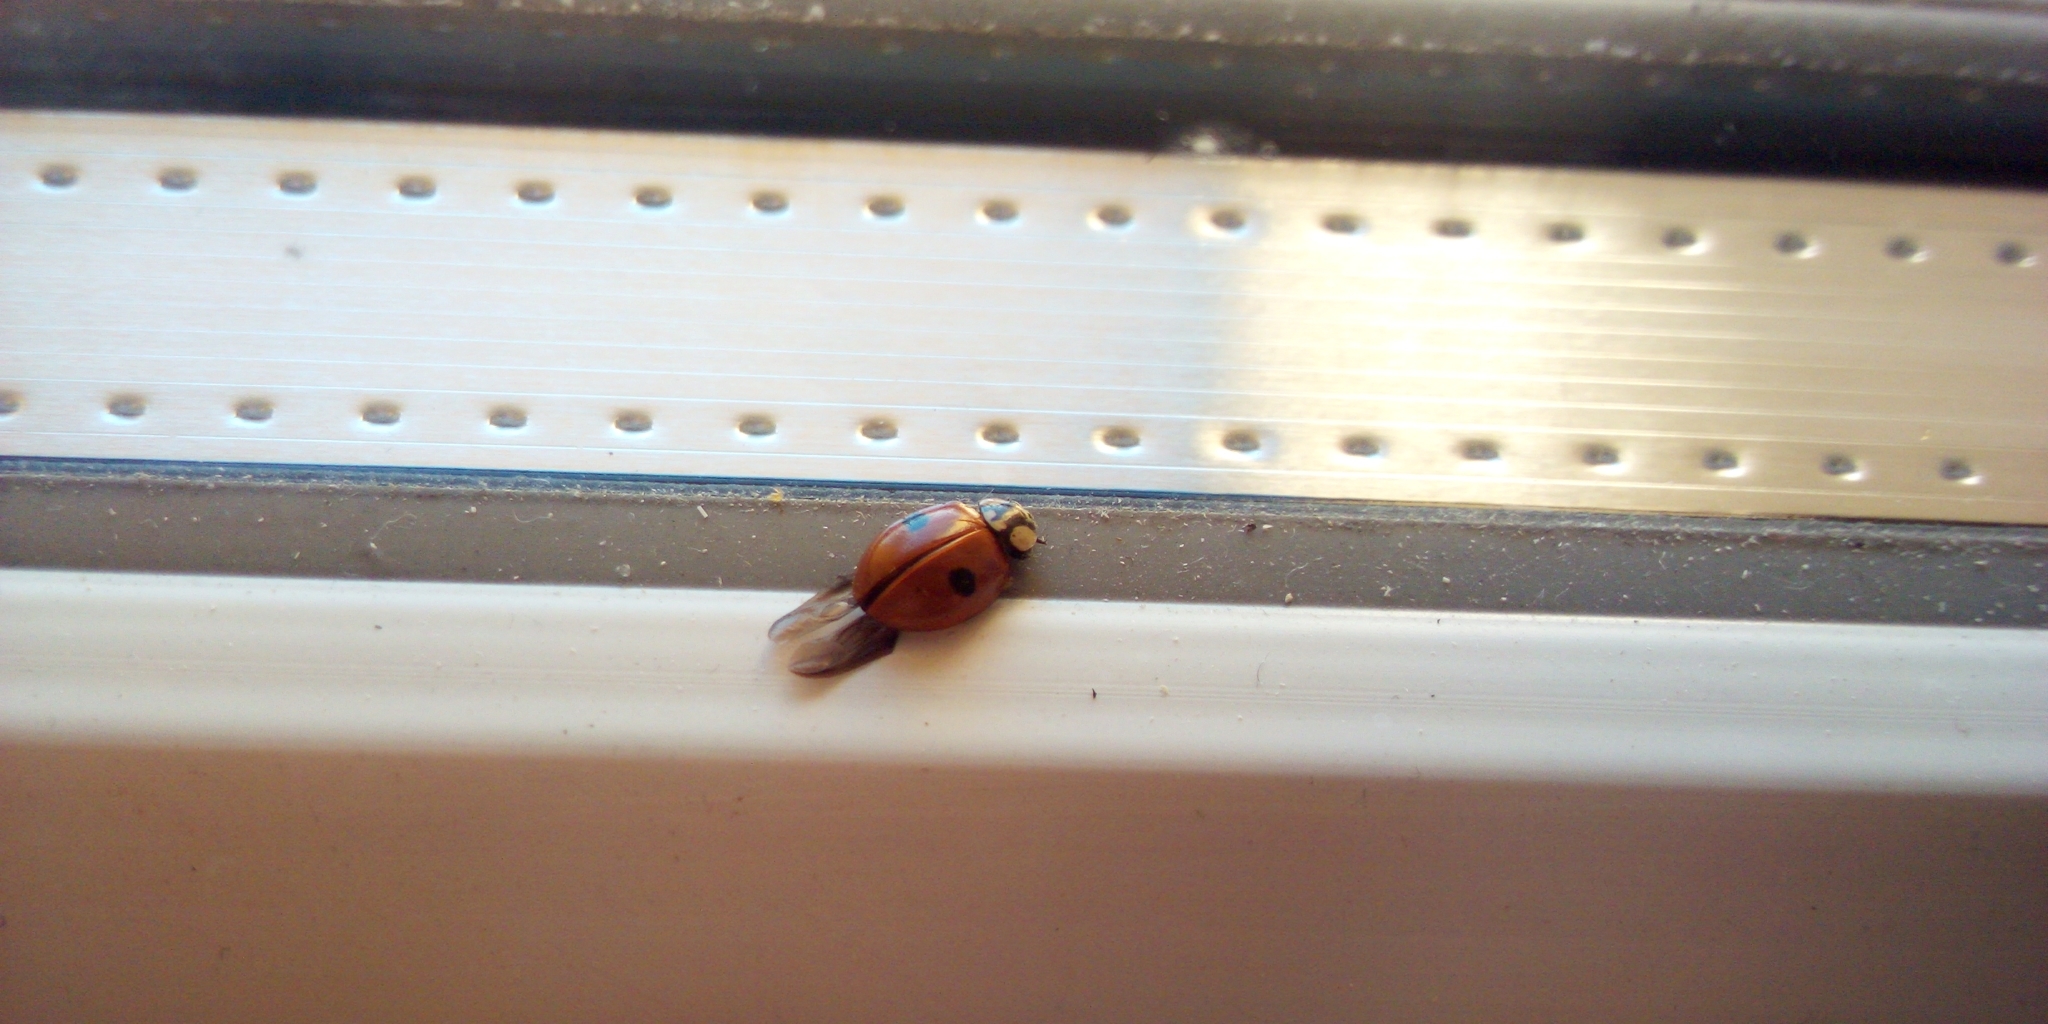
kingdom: Animalia
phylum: Arthropoda
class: Insecta
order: Coleoptera
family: Coccinellidae
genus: Adalia
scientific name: Adalia bipunctata
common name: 2-spot ladybird
